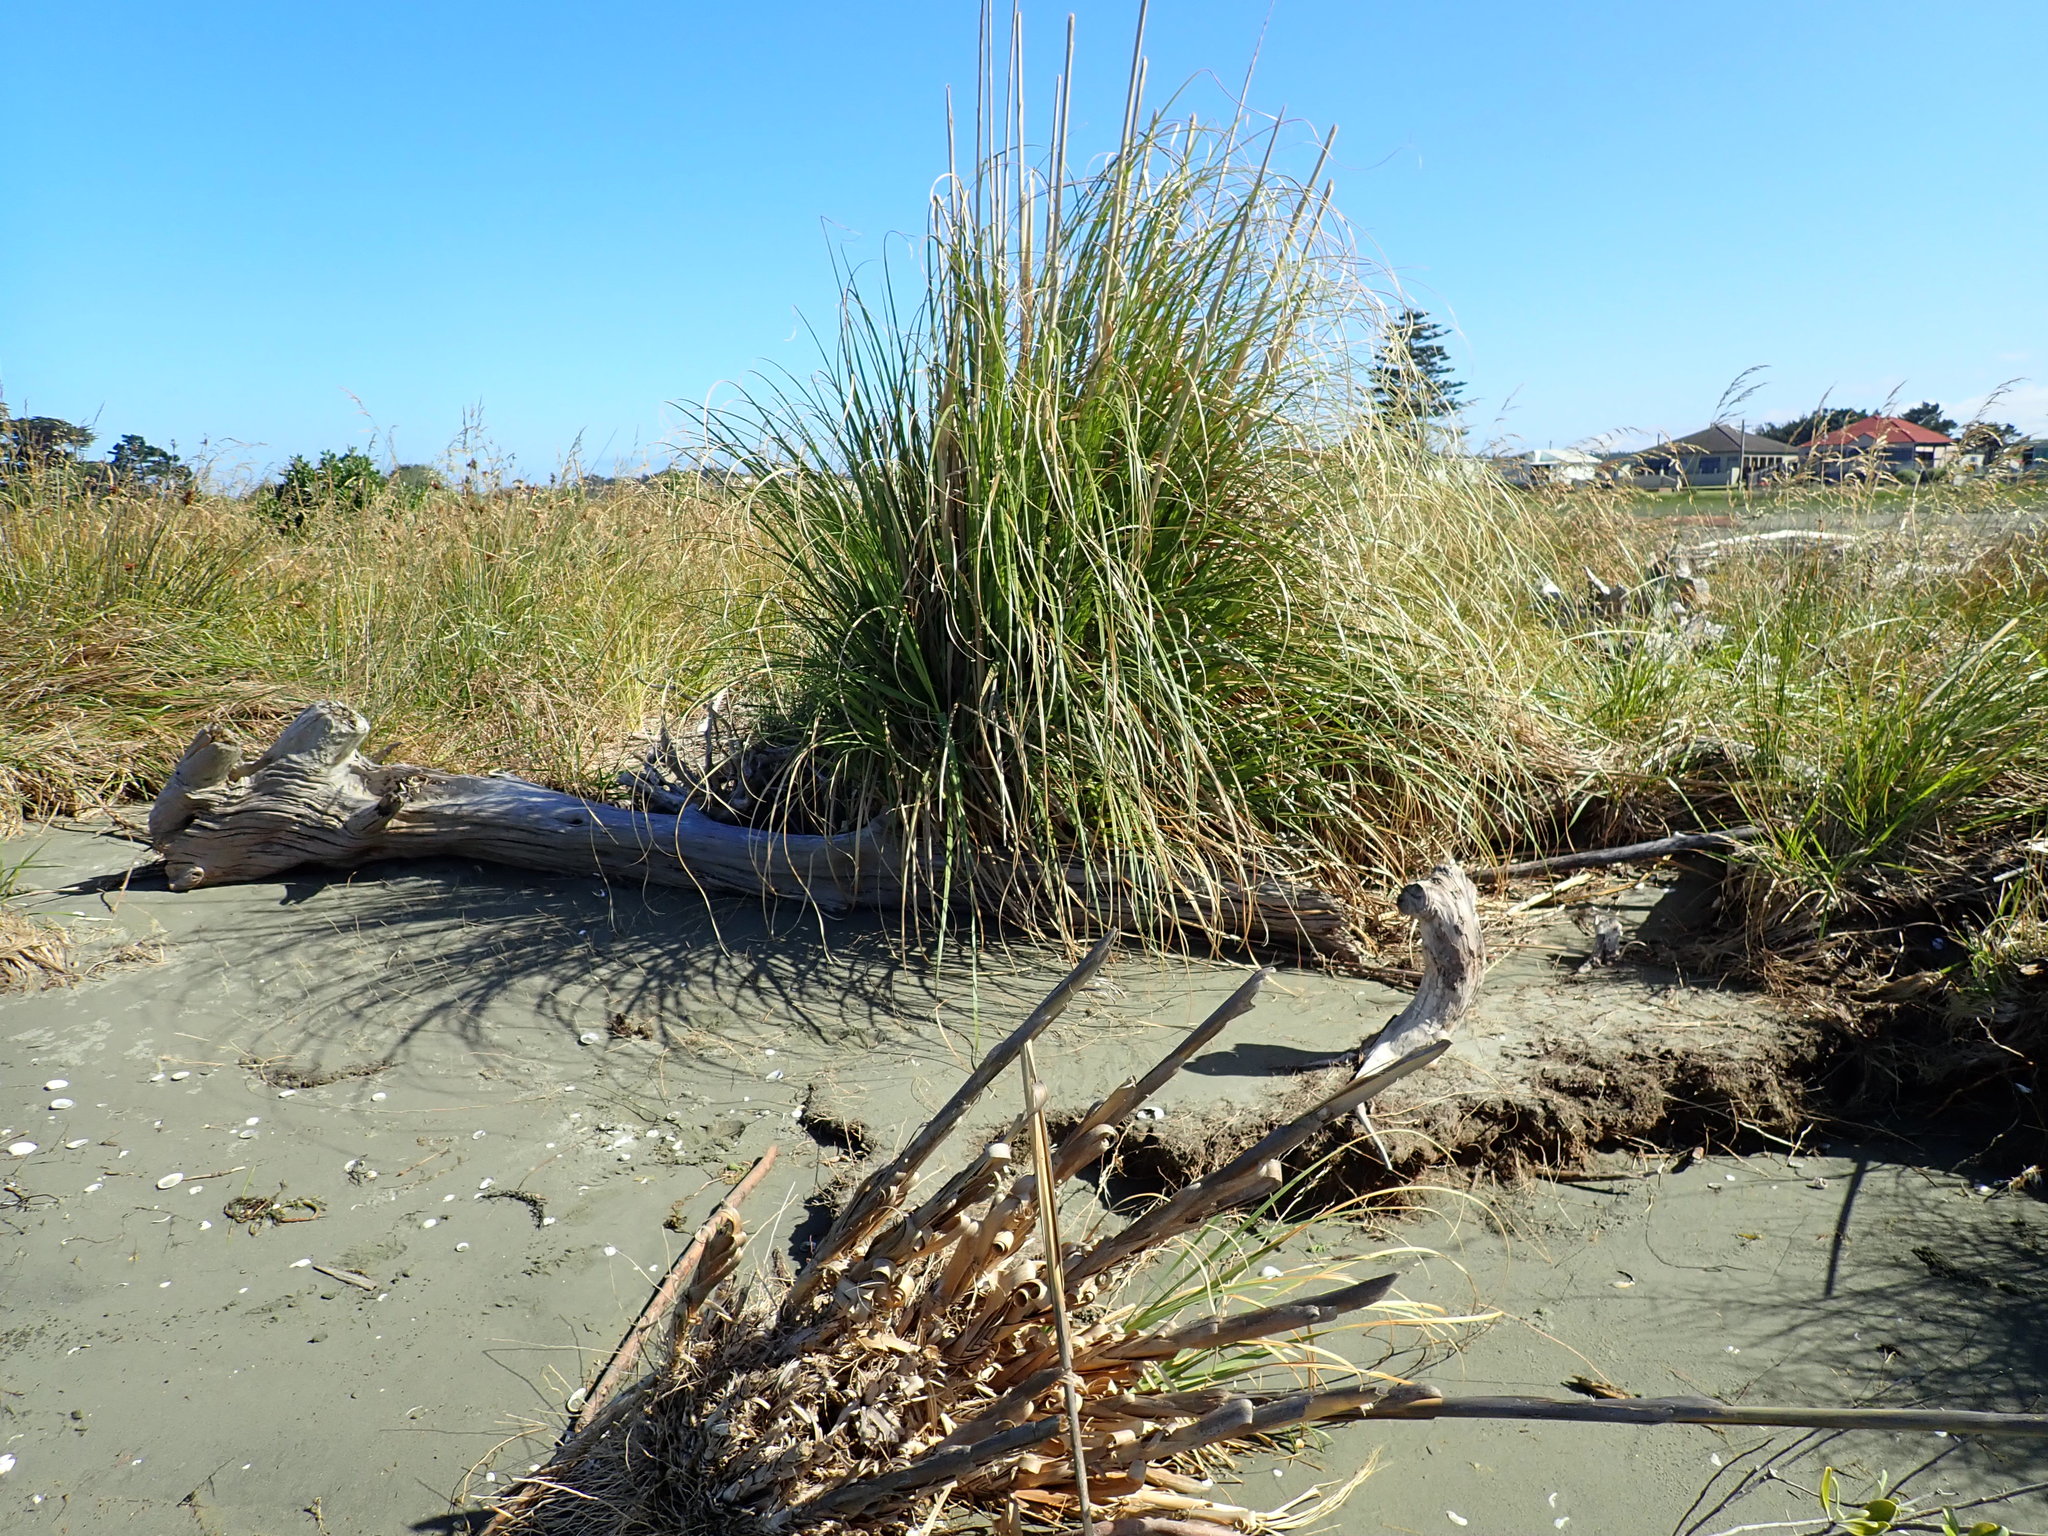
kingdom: Plantae
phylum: Tracheophyta
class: Liliopsida
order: Poales
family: Poaceae
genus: Cortaderia
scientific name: Cortaderia selloana
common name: Uruguayan pampas grass
